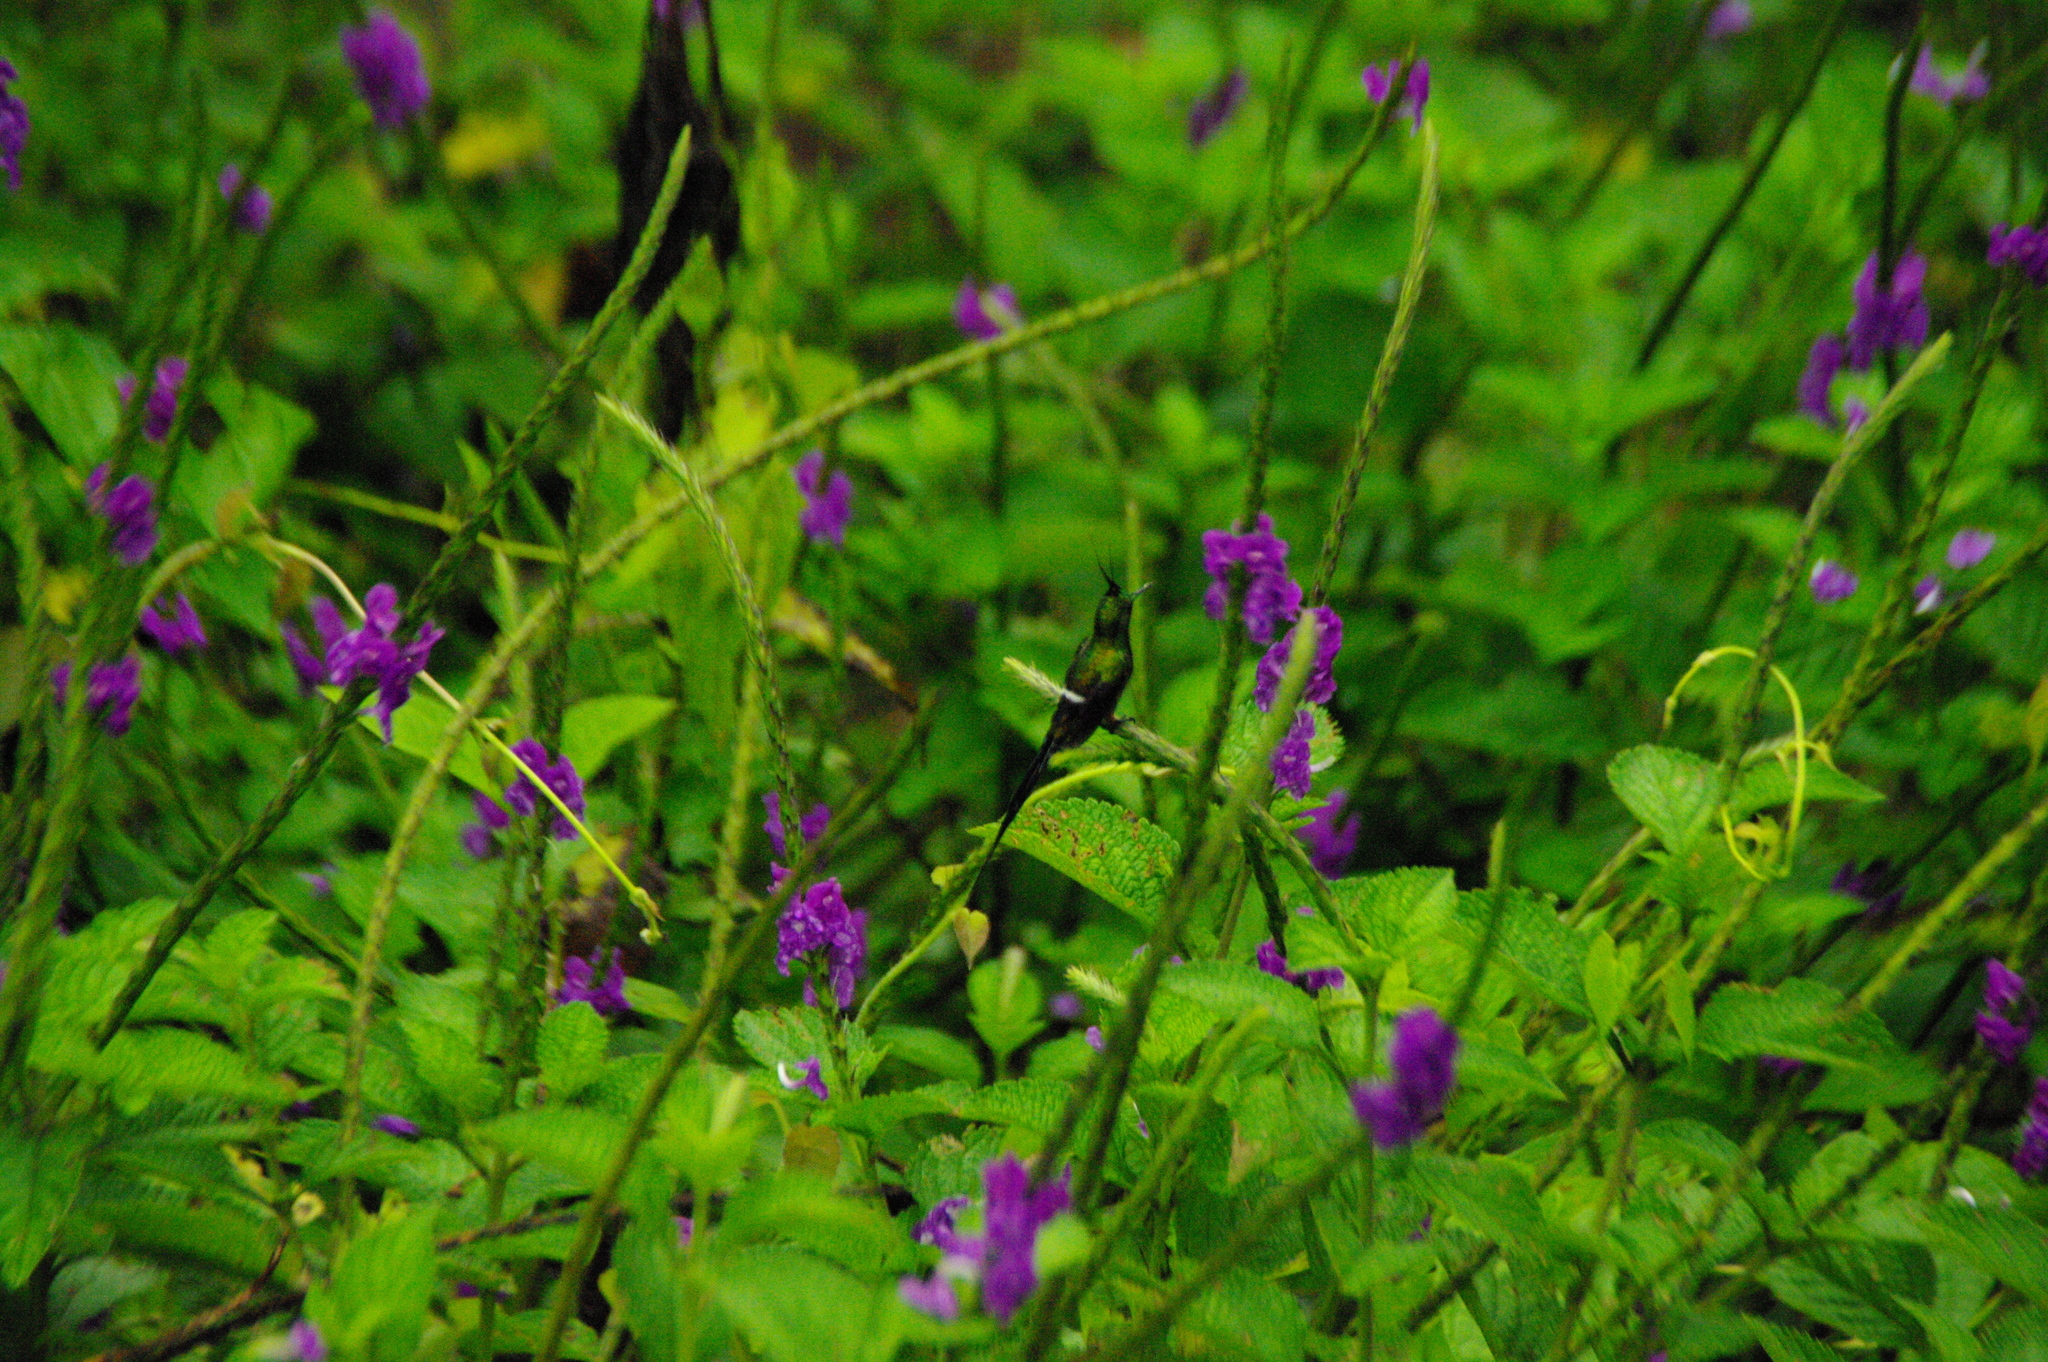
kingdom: Animalia
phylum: Chordata
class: Aves
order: Apodiformes
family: Trochilidae
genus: Discosura
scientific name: Discosura popelairii
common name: Wire-crested thorntail
